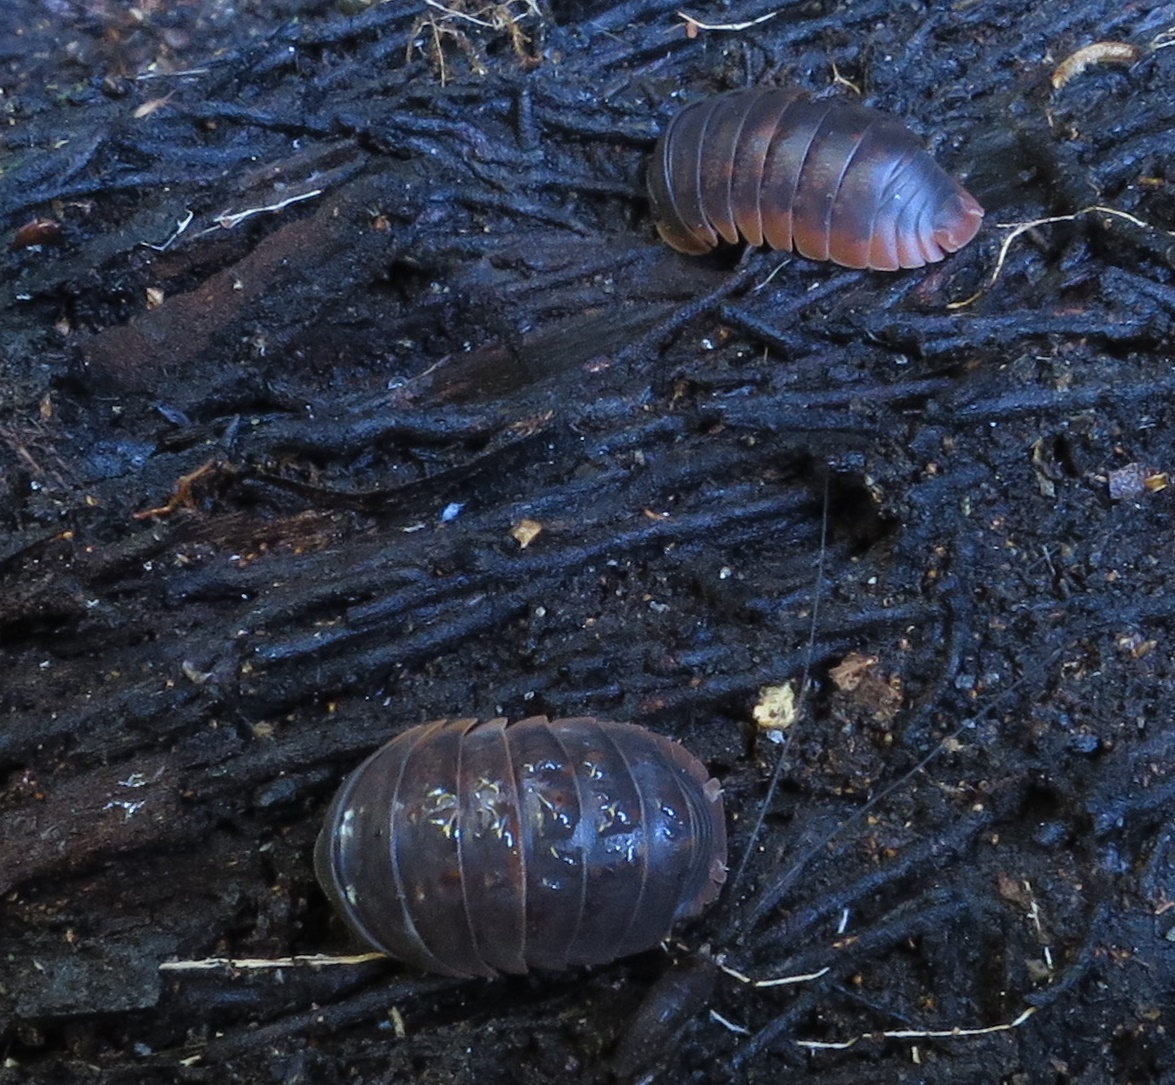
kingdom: Animalia
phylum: Arthropoda
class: Malacostraca
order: Isopoda
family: Armadillidae
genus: Spherillo
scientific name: Spherillo rufomarginatus
